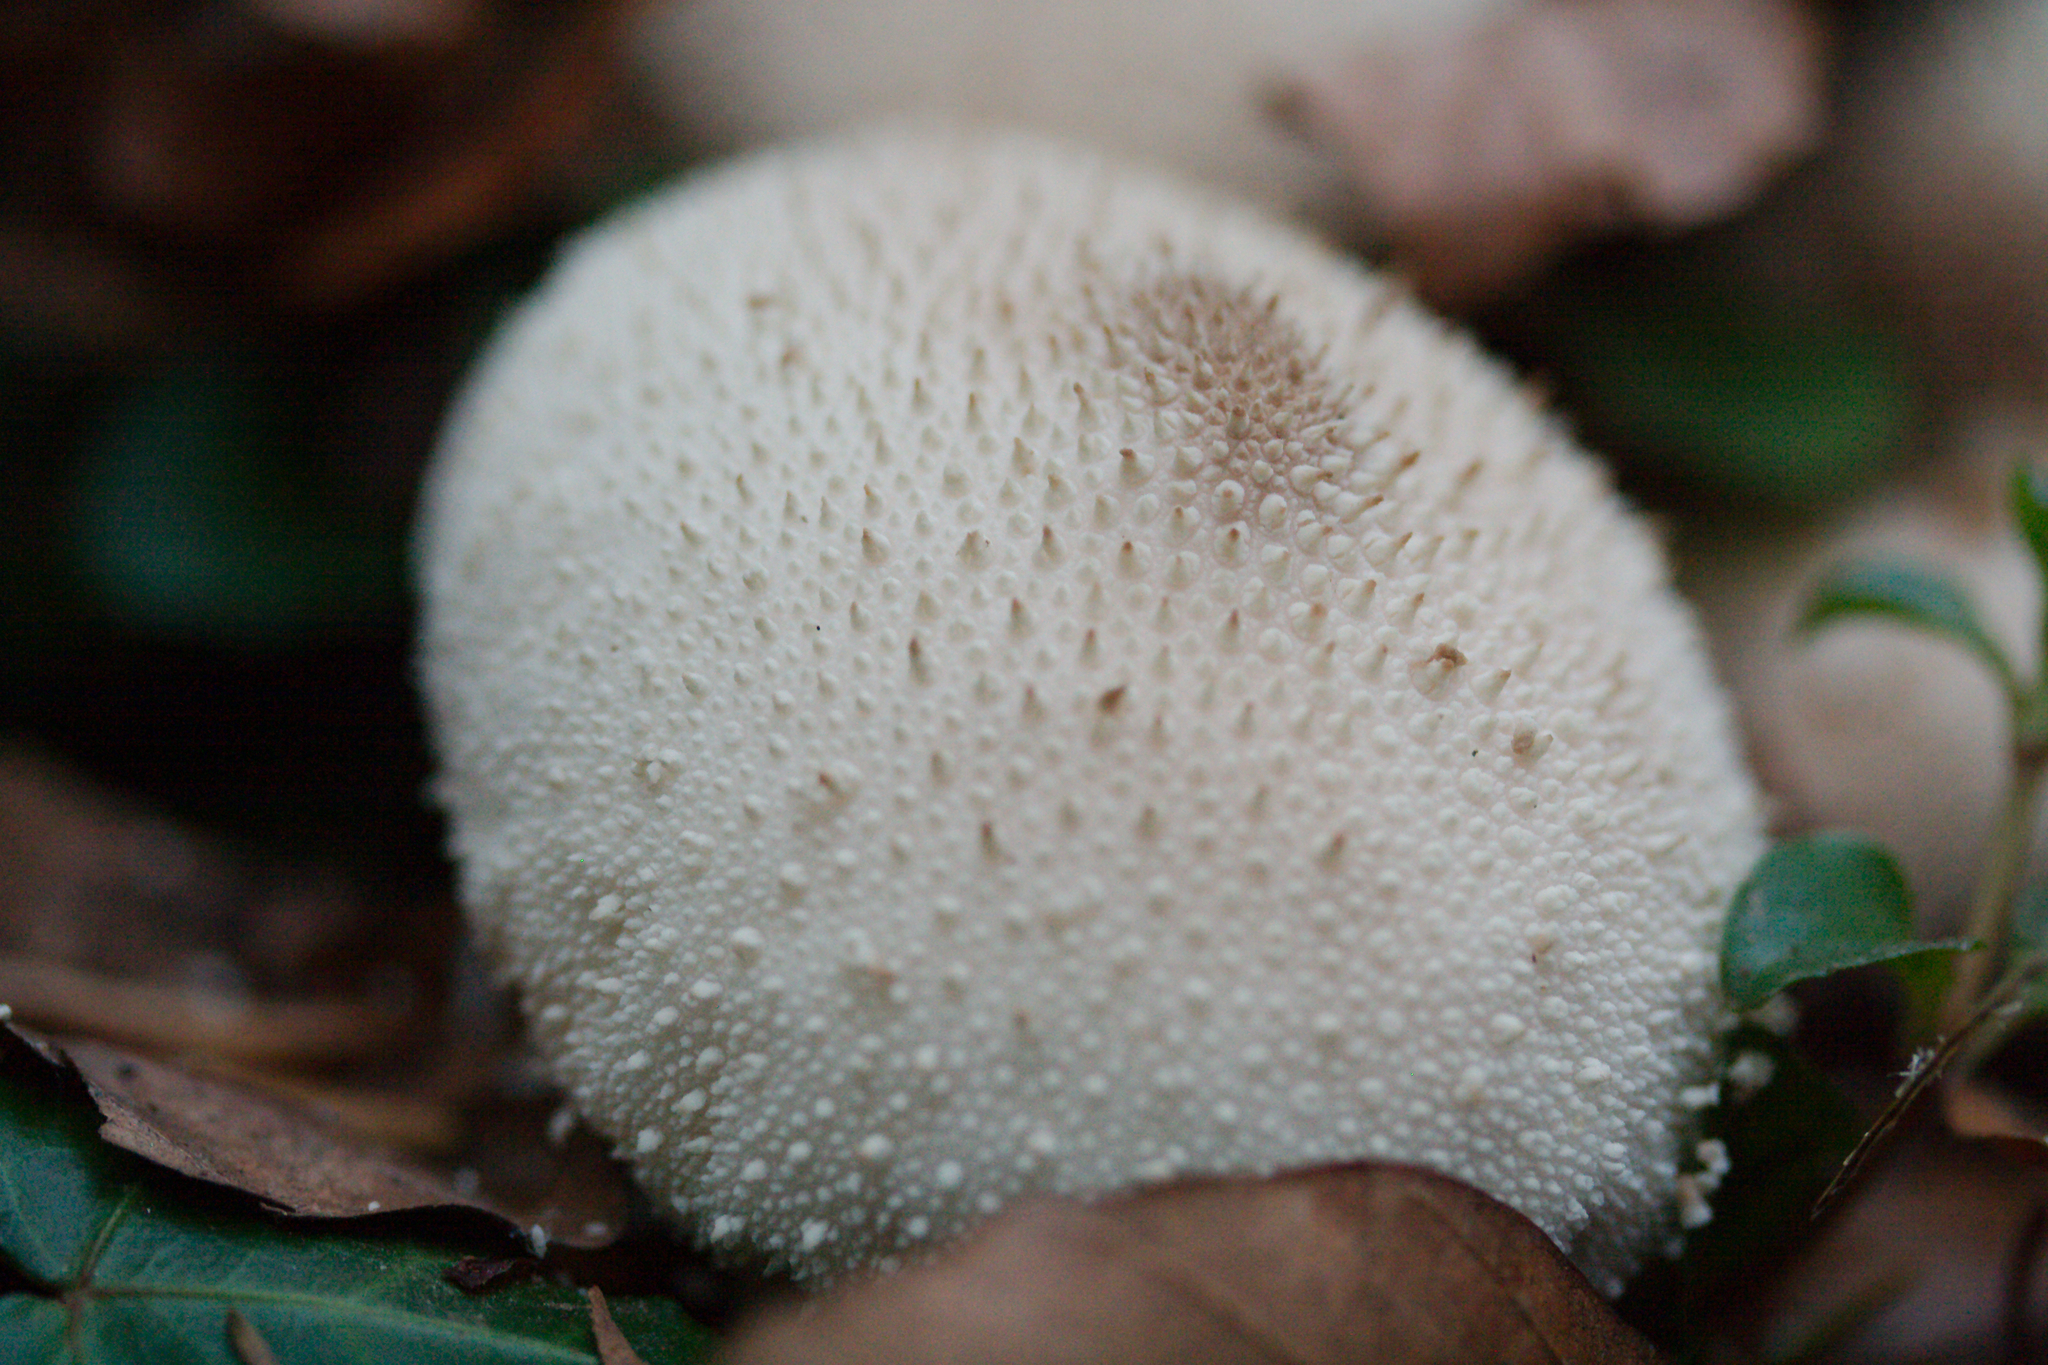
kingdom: Fungi
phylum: Basidiomycota
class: Agaricomycetes
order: Agaricales
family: Lycoperdaceae
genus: Lycoperdon
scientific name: Lycoperdon perlatum
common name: Common puffball
